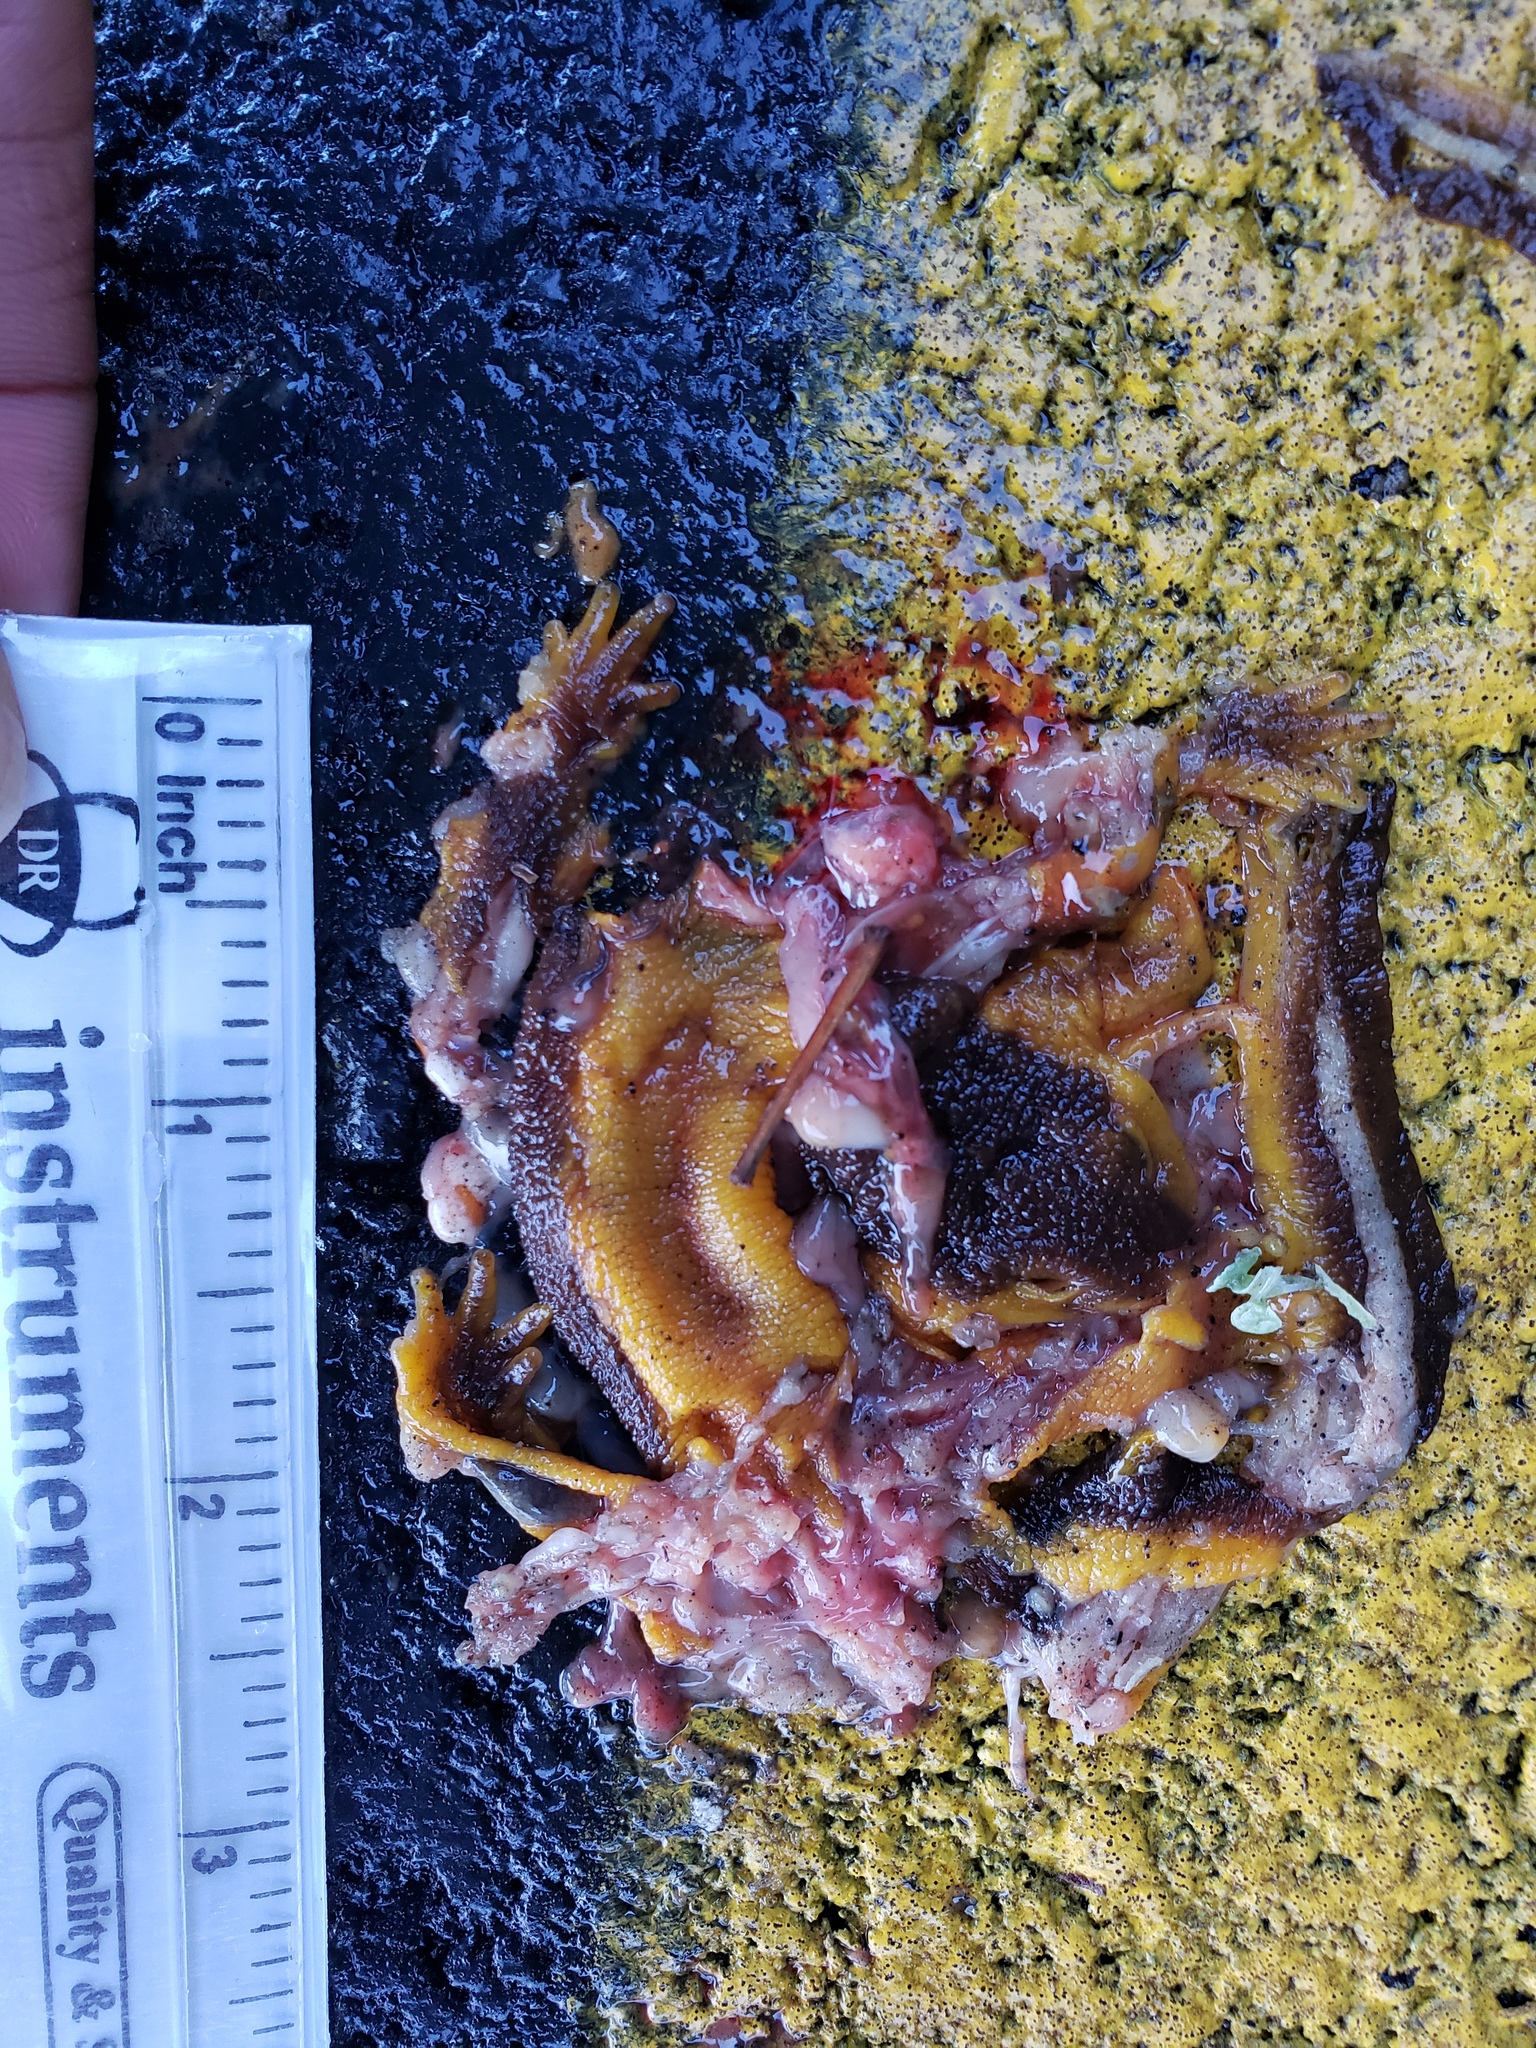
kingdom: Animalia
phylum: Chordata
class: Amphibia
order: Caudata
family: Salamandridae
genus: Taricha
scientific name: Taricha
